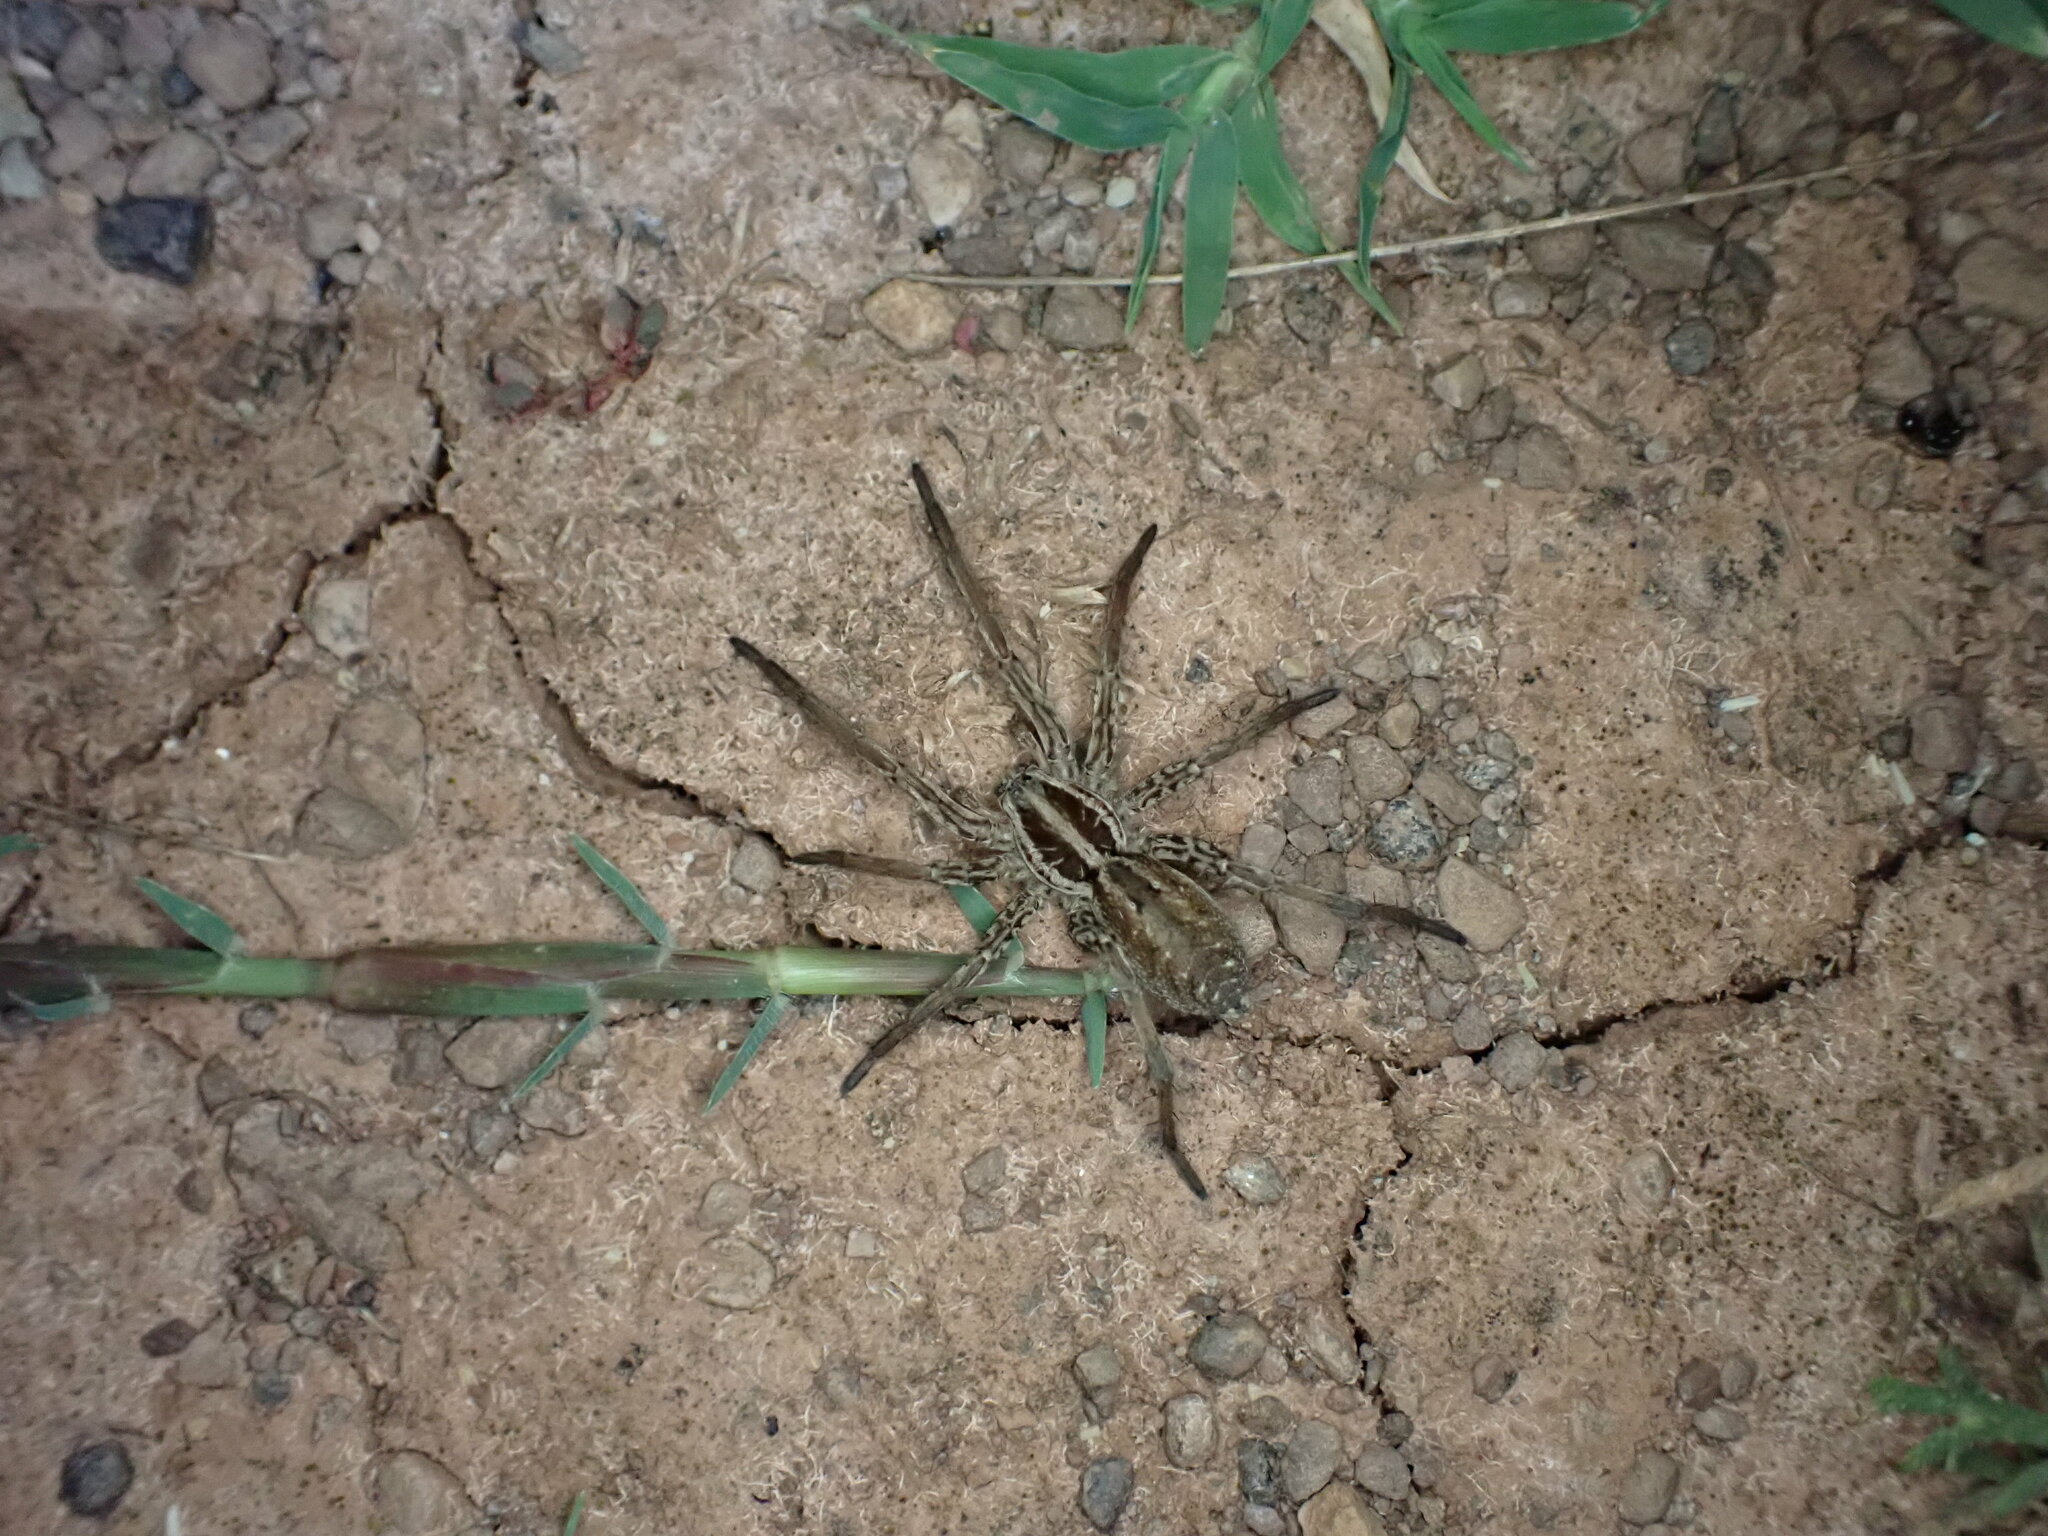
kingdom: Animalia
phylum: Arthropoda
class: Arachnida
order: Araneae
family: Lycosidae
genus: Hogna
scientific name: Hogna radiata
